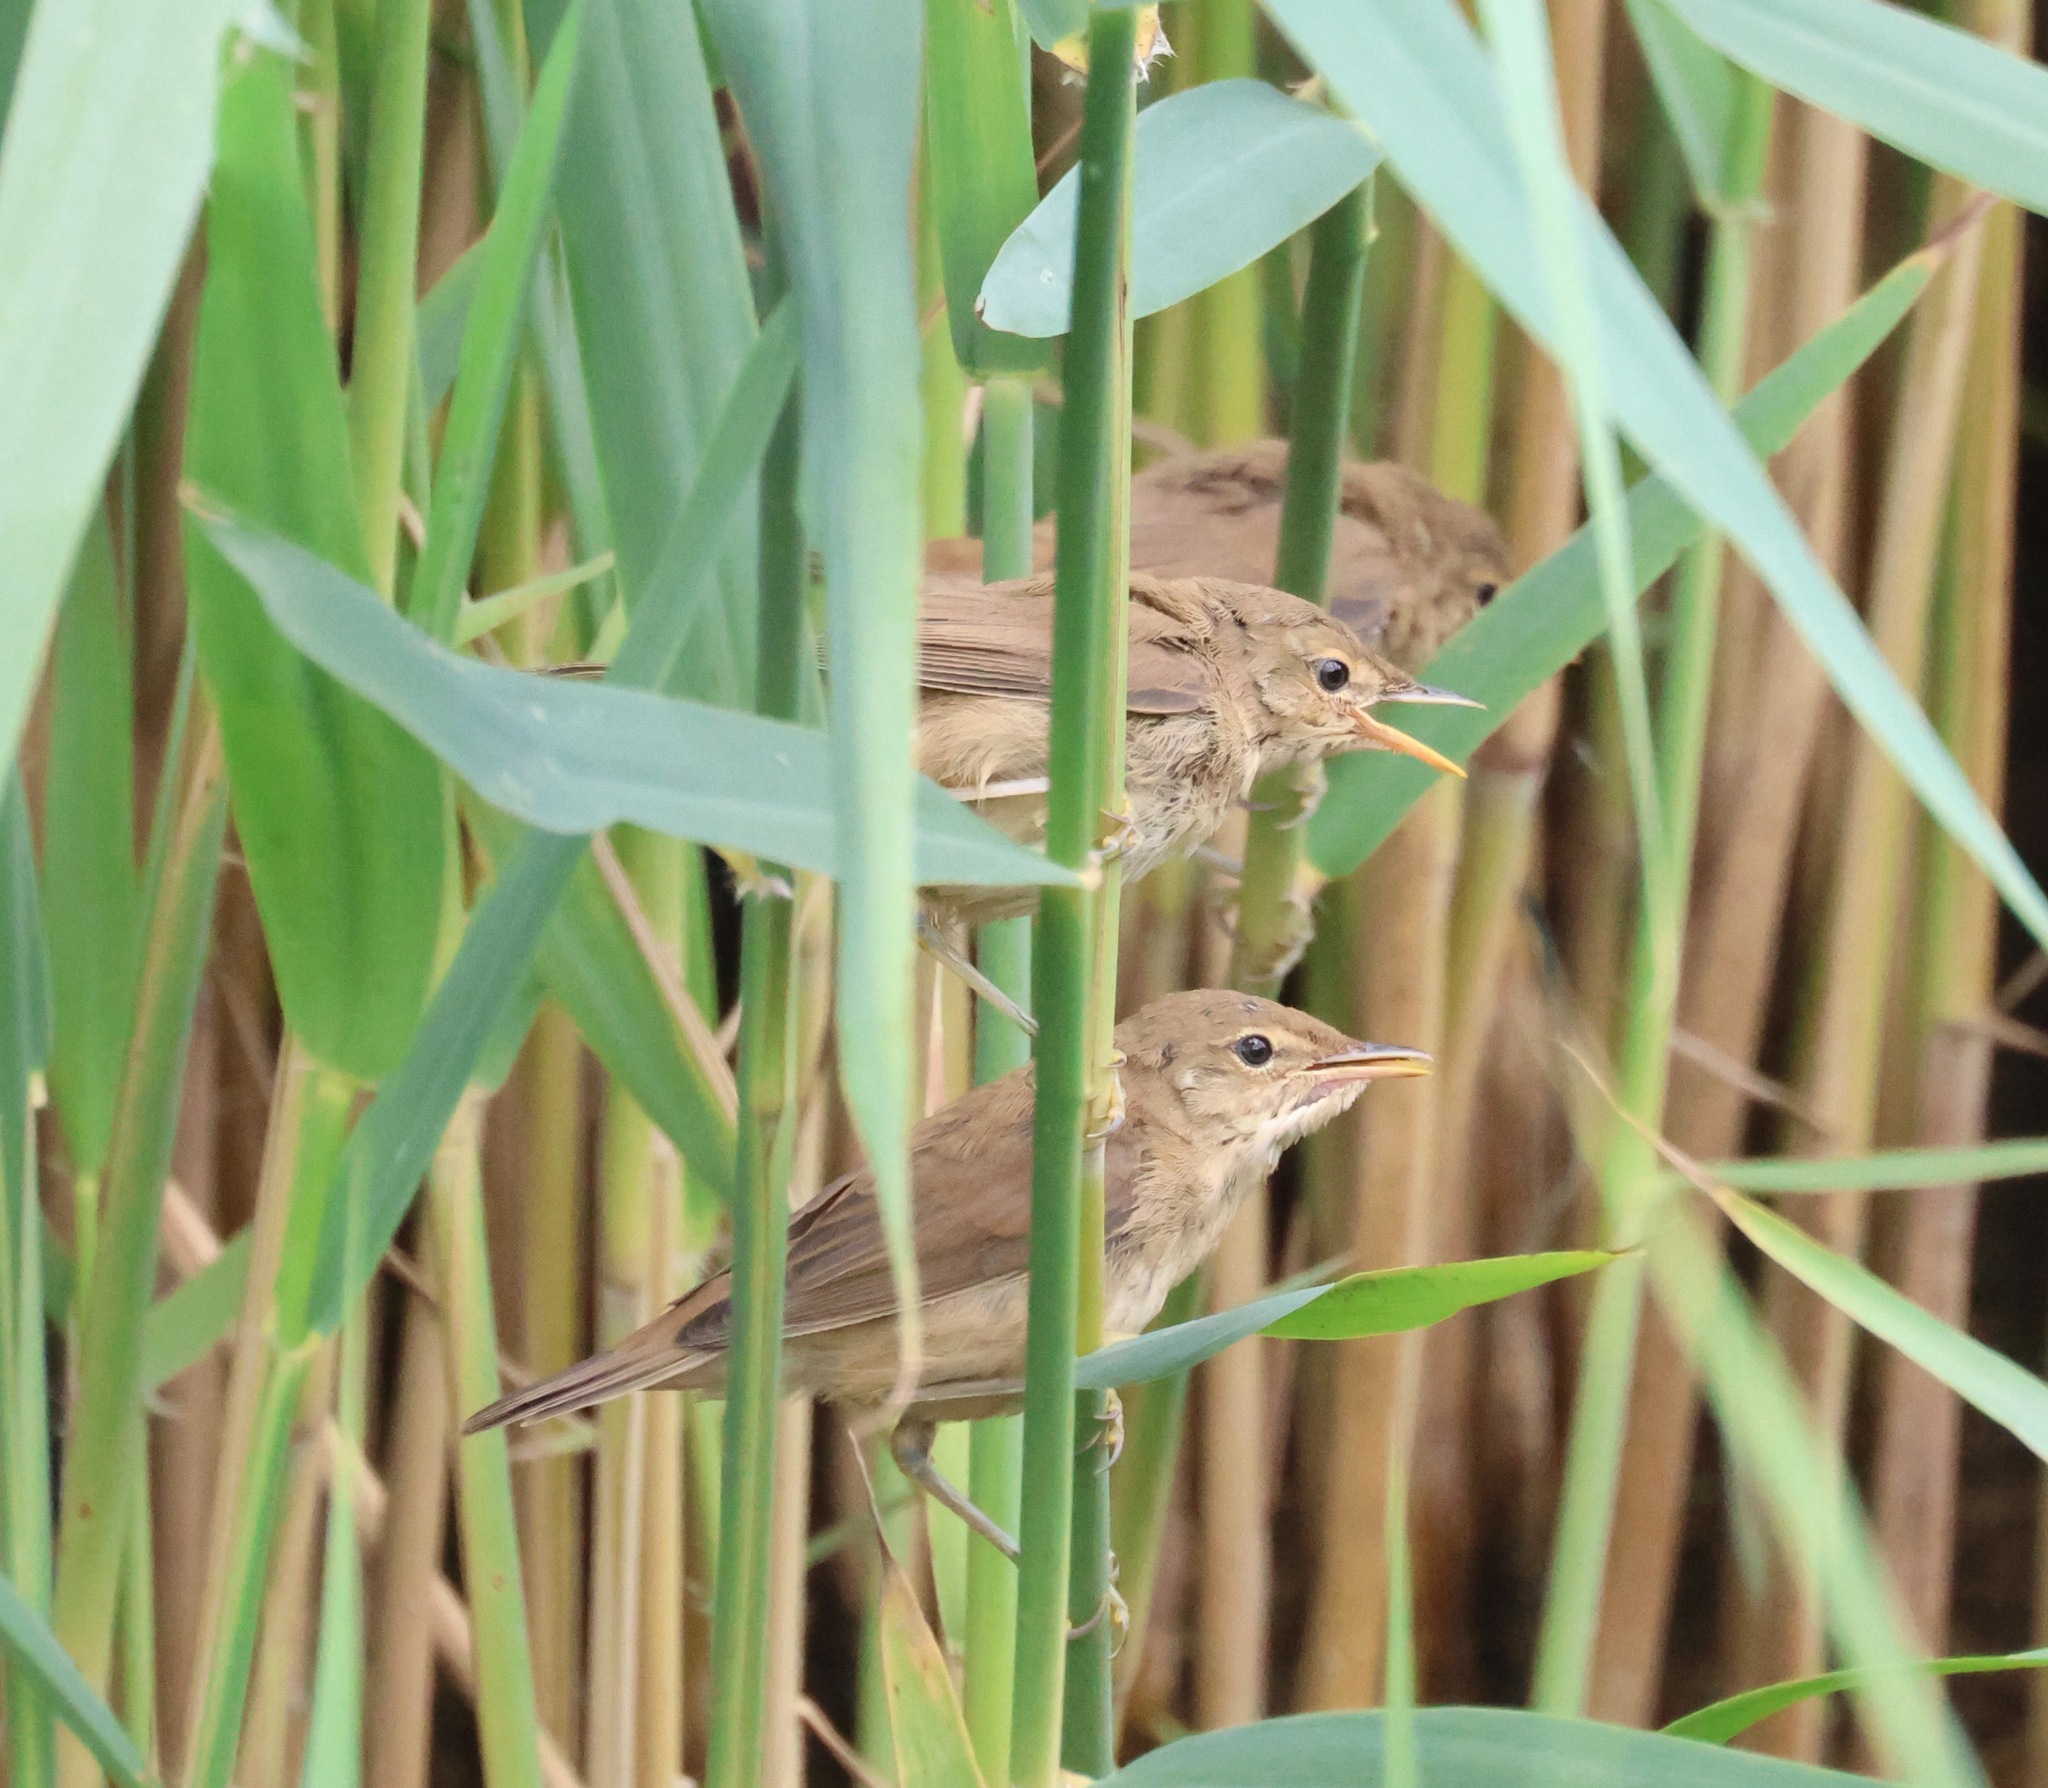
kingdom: Animalia
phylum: Chordata
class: Aves
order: Passeriformes
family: Acrocephalidae
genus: Acrocephalus
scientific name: Acrocephalus scirpaceus
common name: Eurasian reed warbler
